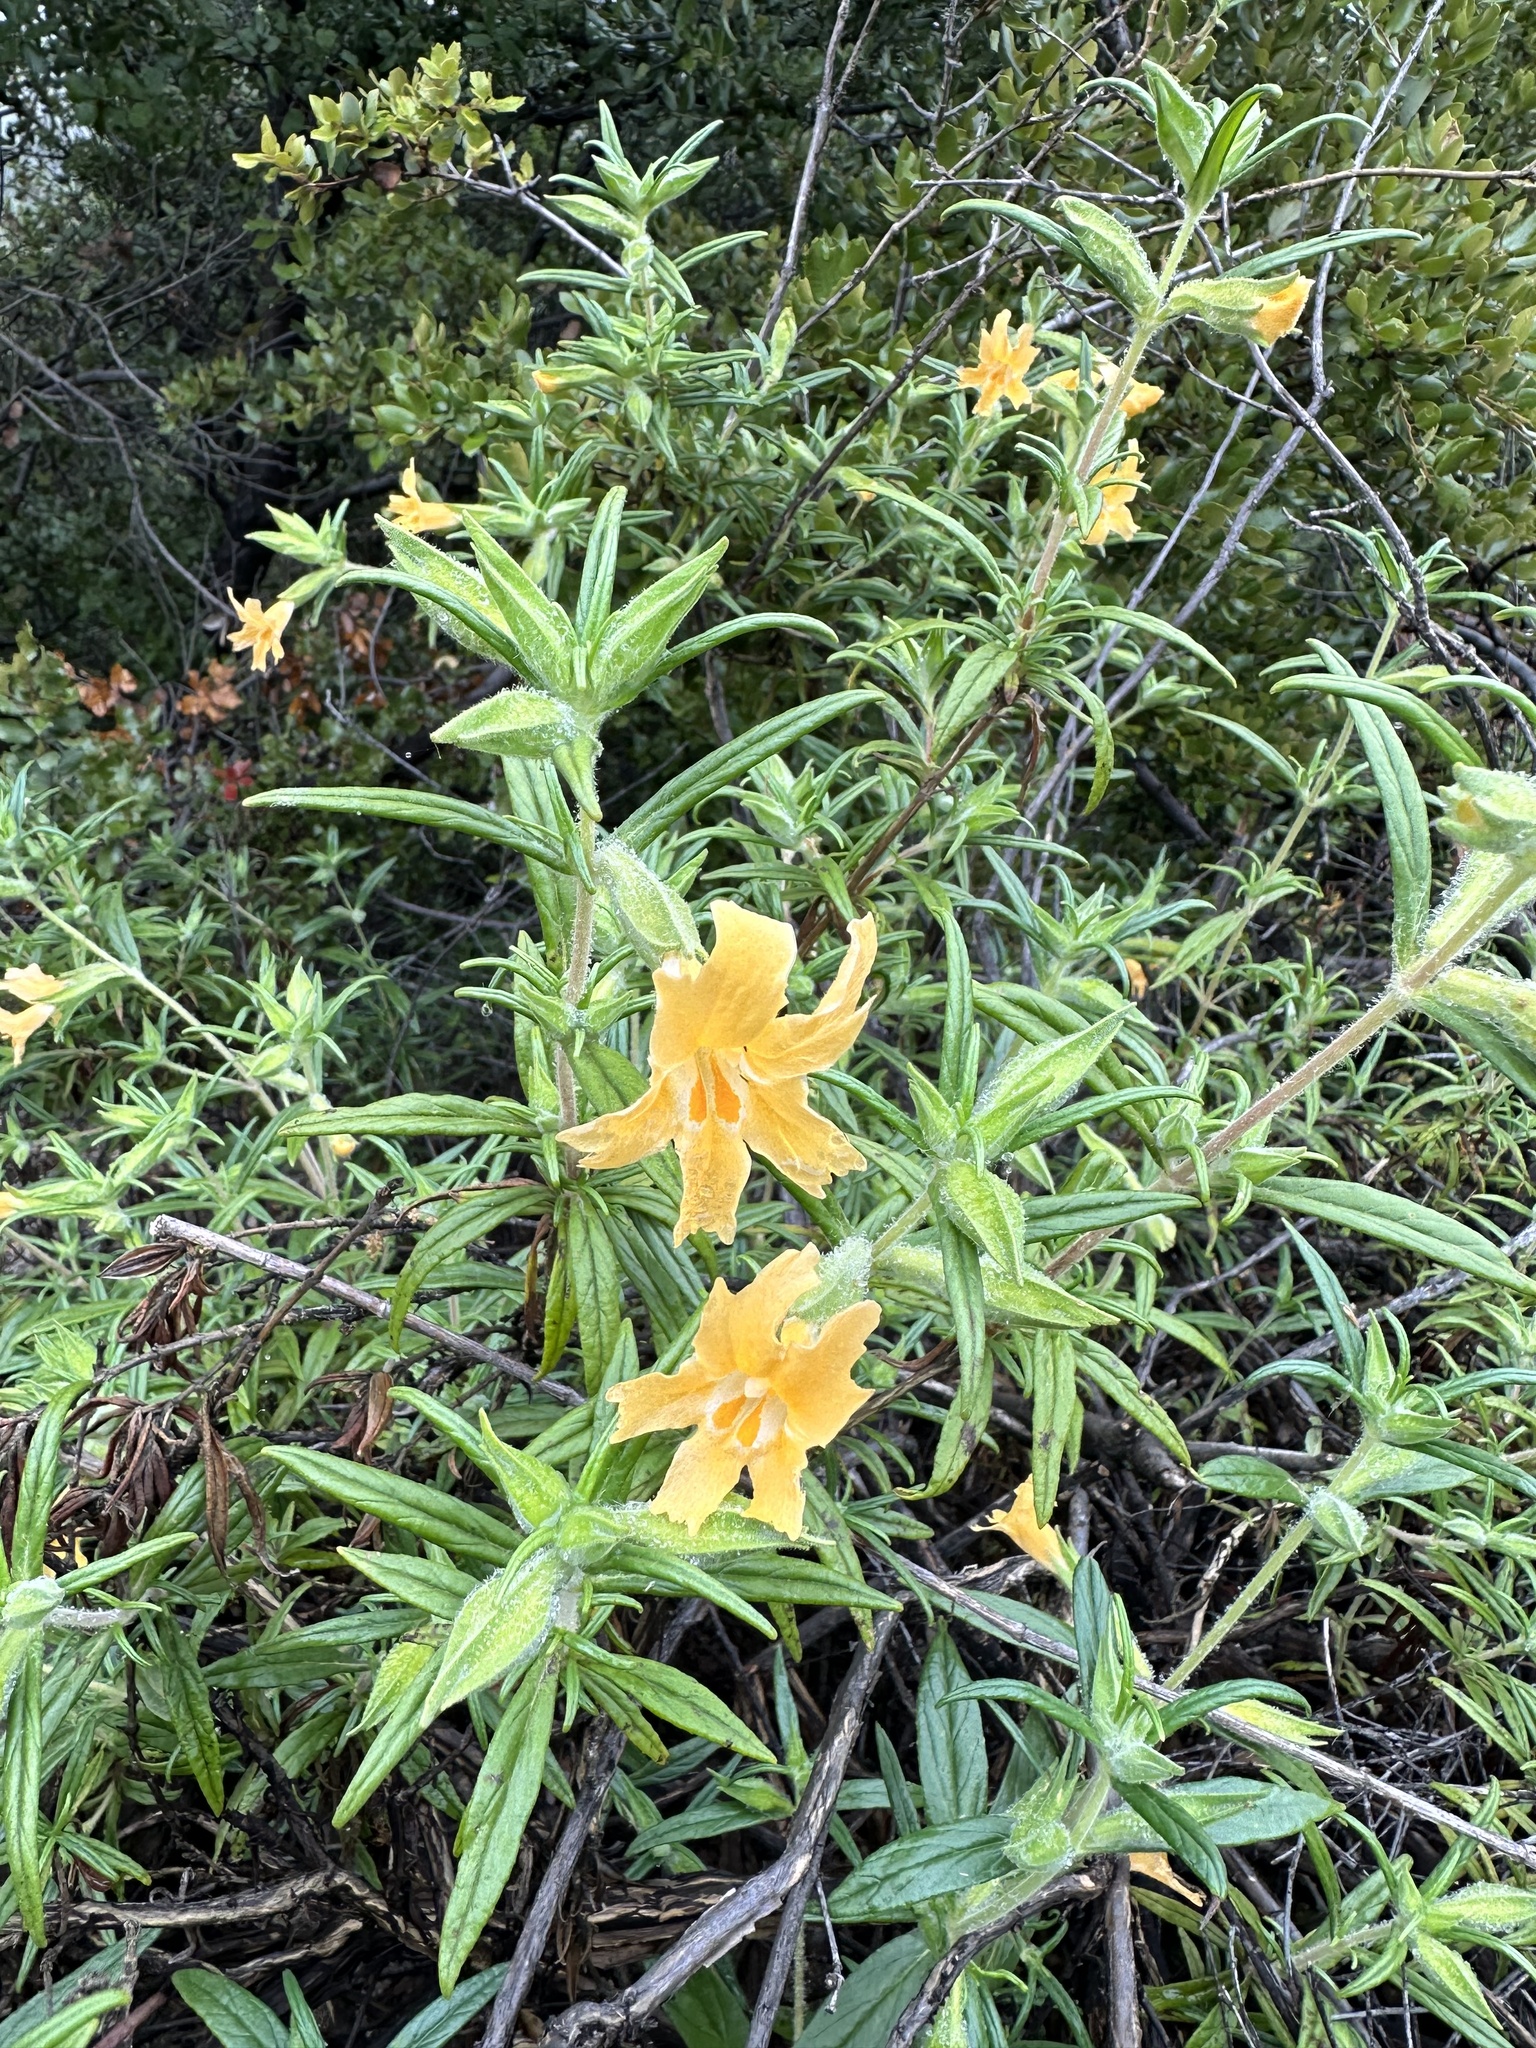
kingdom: Plantae
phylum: Tracheophyta
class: Magnoliopsida
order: Lamiales
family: Phrymaceae
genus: Diplacus
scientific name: Diplacus longiflorus
